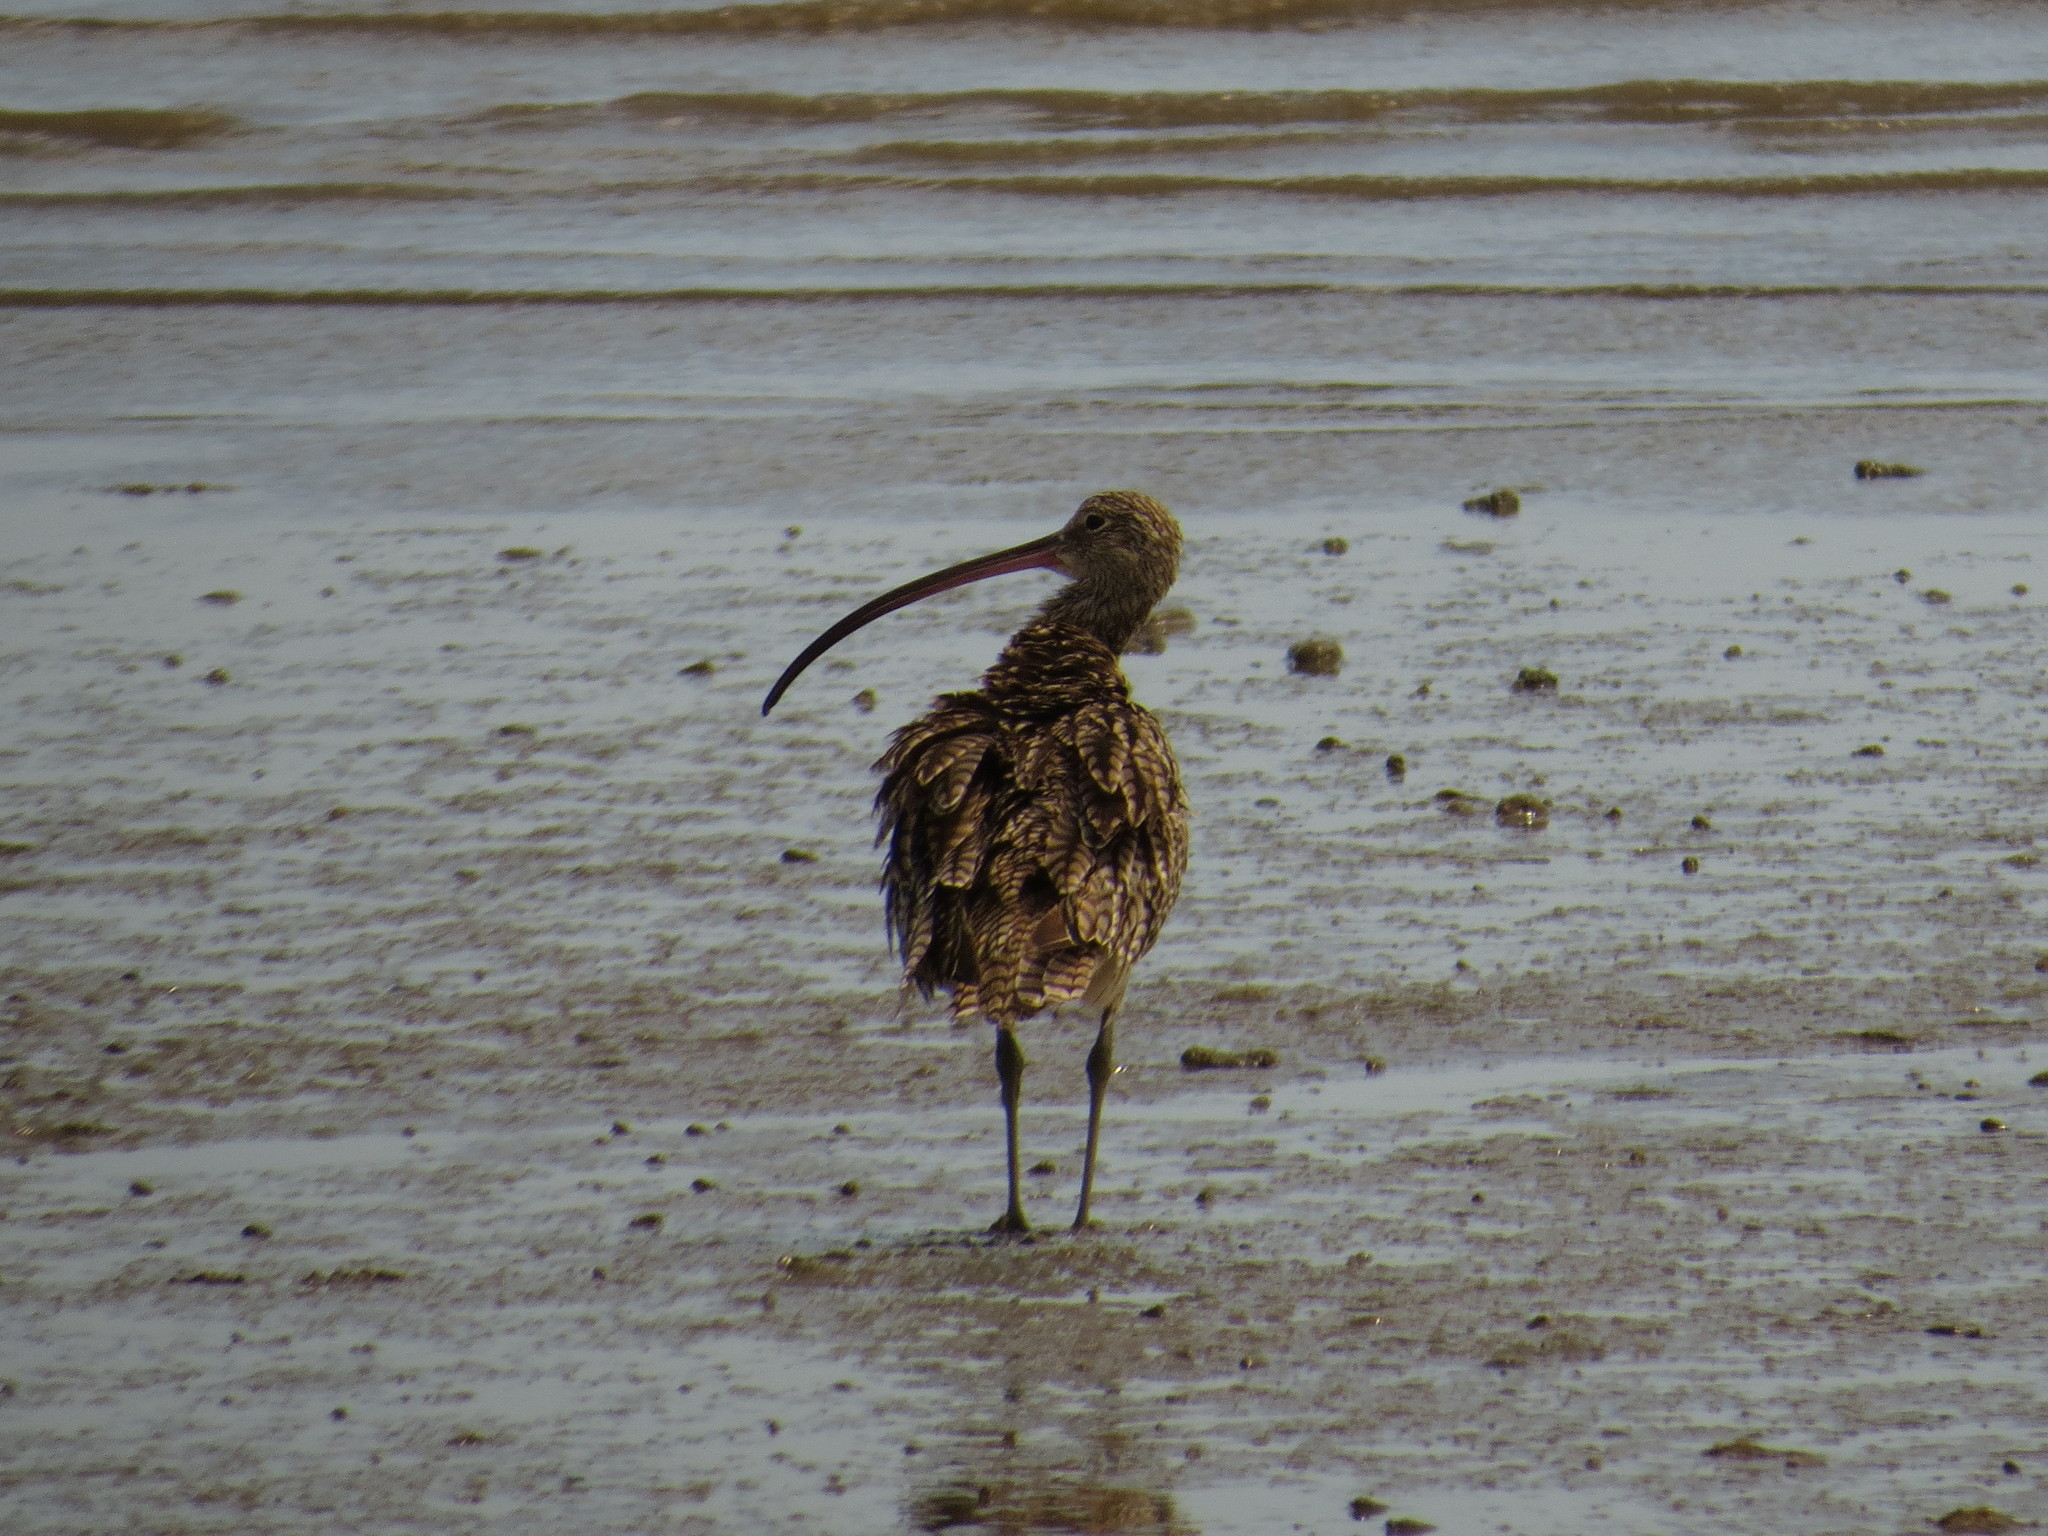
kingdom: Animalia
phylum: Chordata
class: Aves
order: Charadriiformes
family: Scolopacidae
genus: Numenius
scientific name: Numenius madagascariensis
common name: Far eastern curlew
